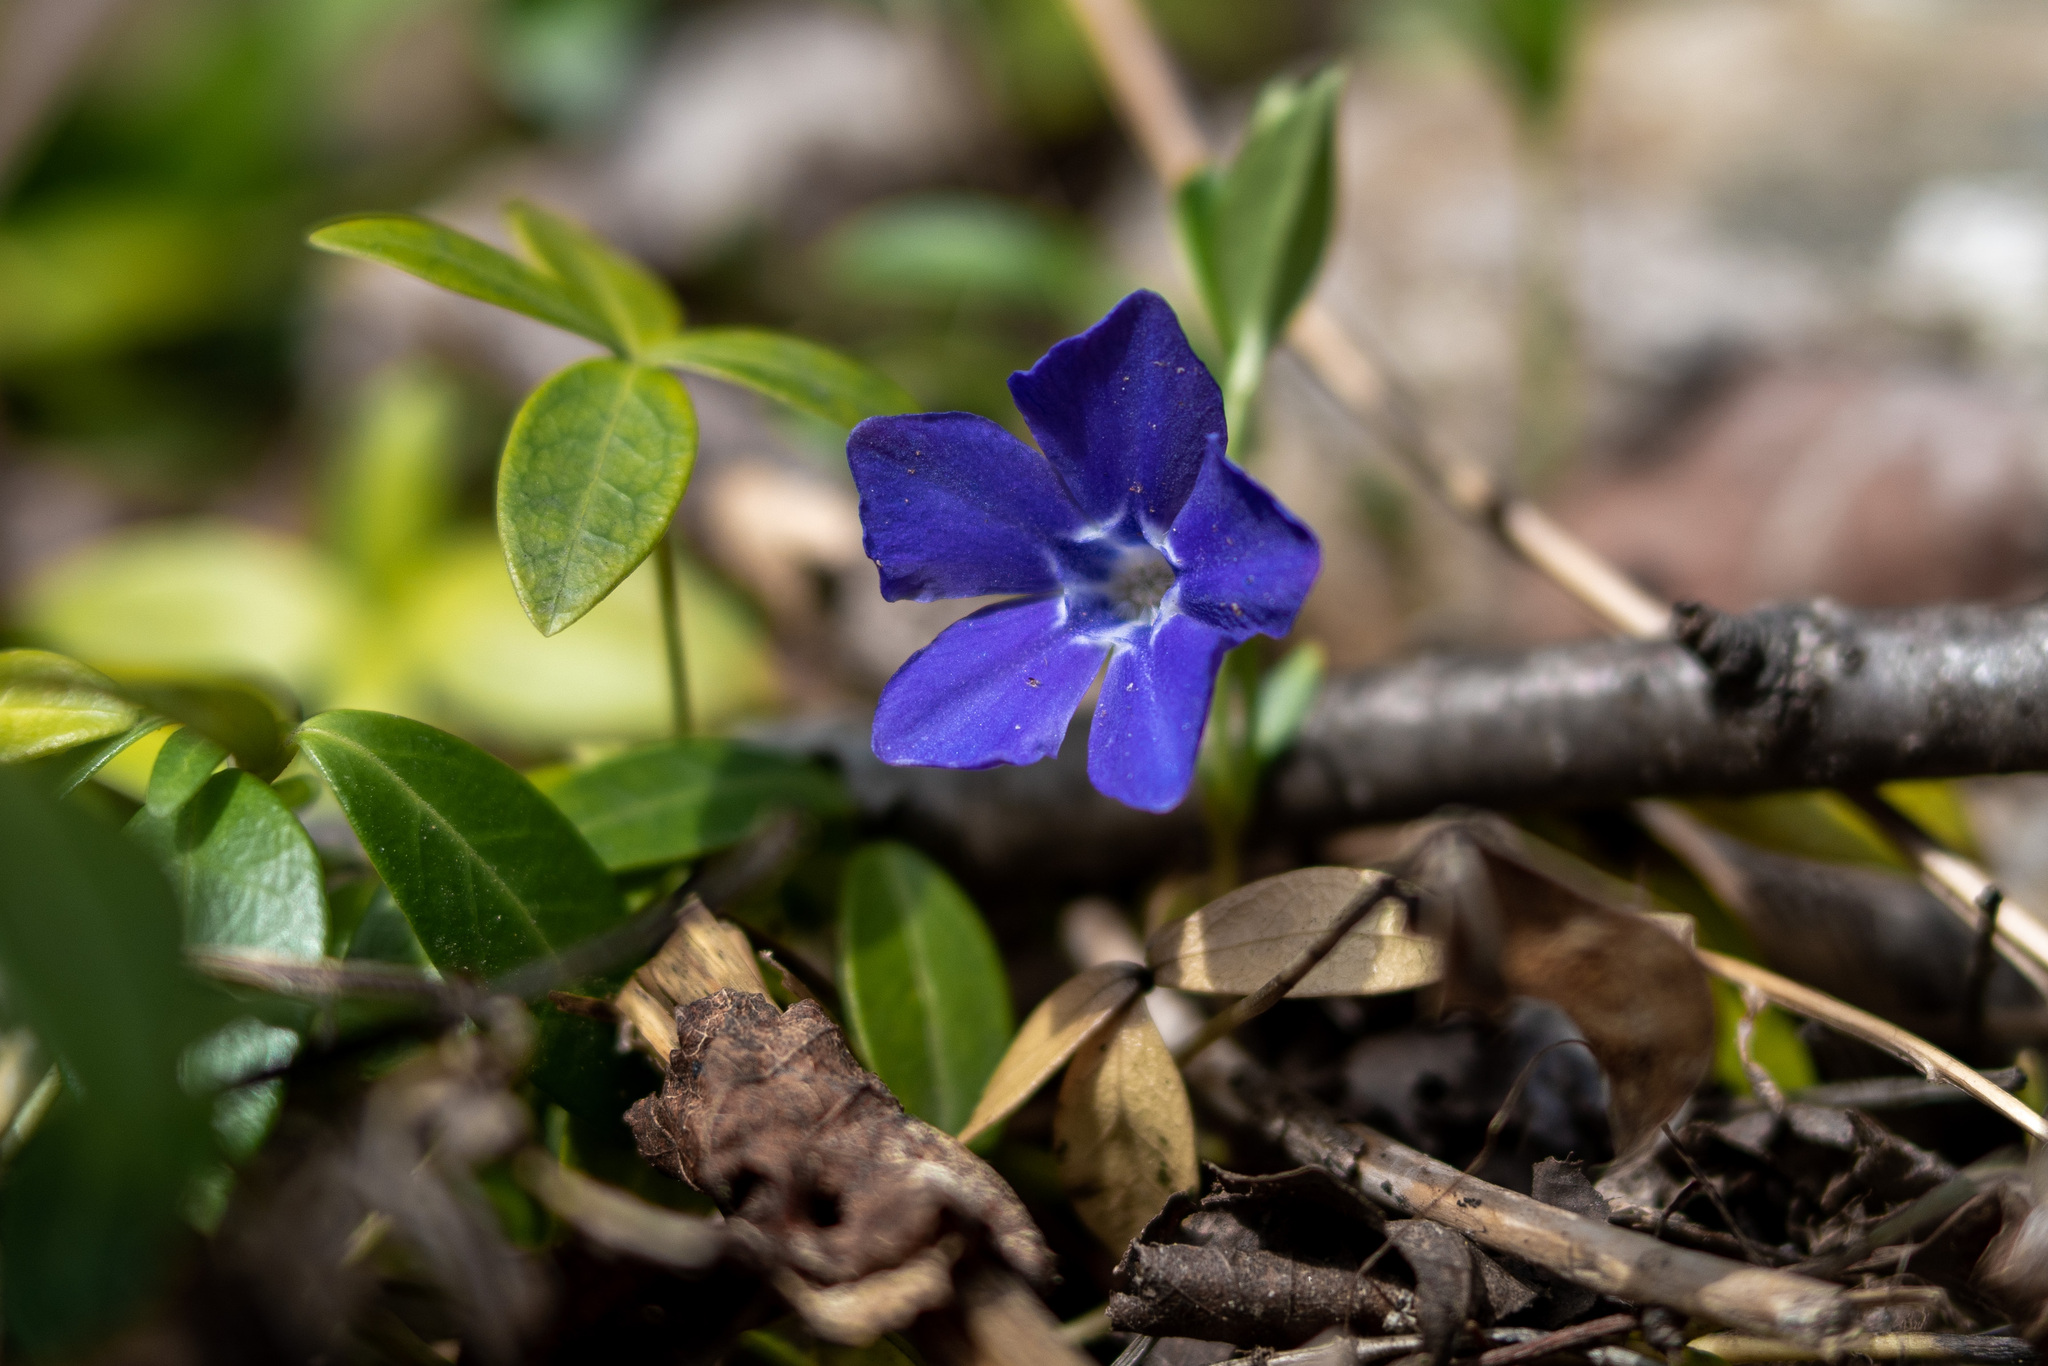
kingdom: Plantae
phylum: Tracheophyta
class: Magnoliopsida
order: Gentianales
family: Apocynaceae
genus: Vinca
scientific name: Vinca minor
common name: Lesser periwinkle
